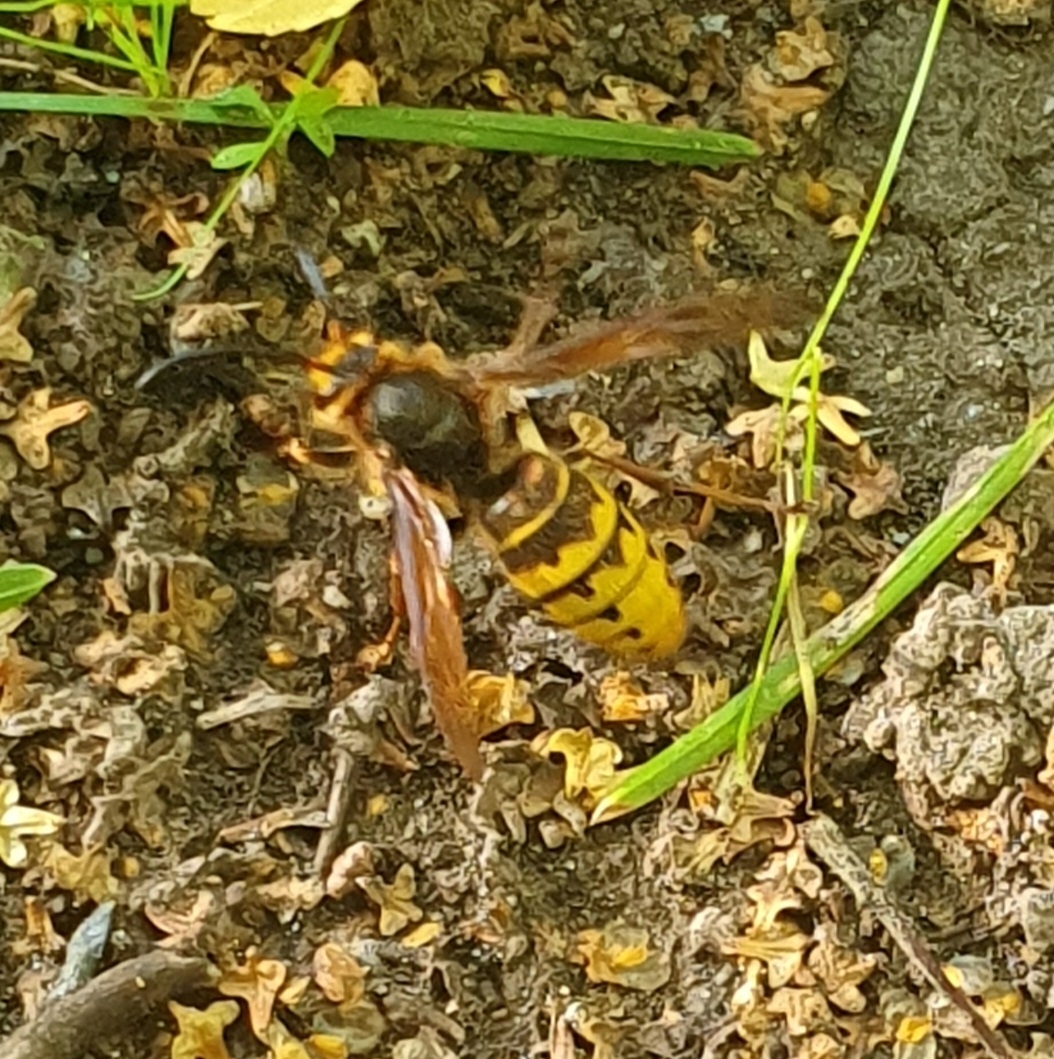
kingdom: Animalia
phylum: Arthropoda
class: Insecta
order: Hymenoptera
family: Vespidae
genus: Vespa
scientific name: Vespa crabro
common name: Hornet
